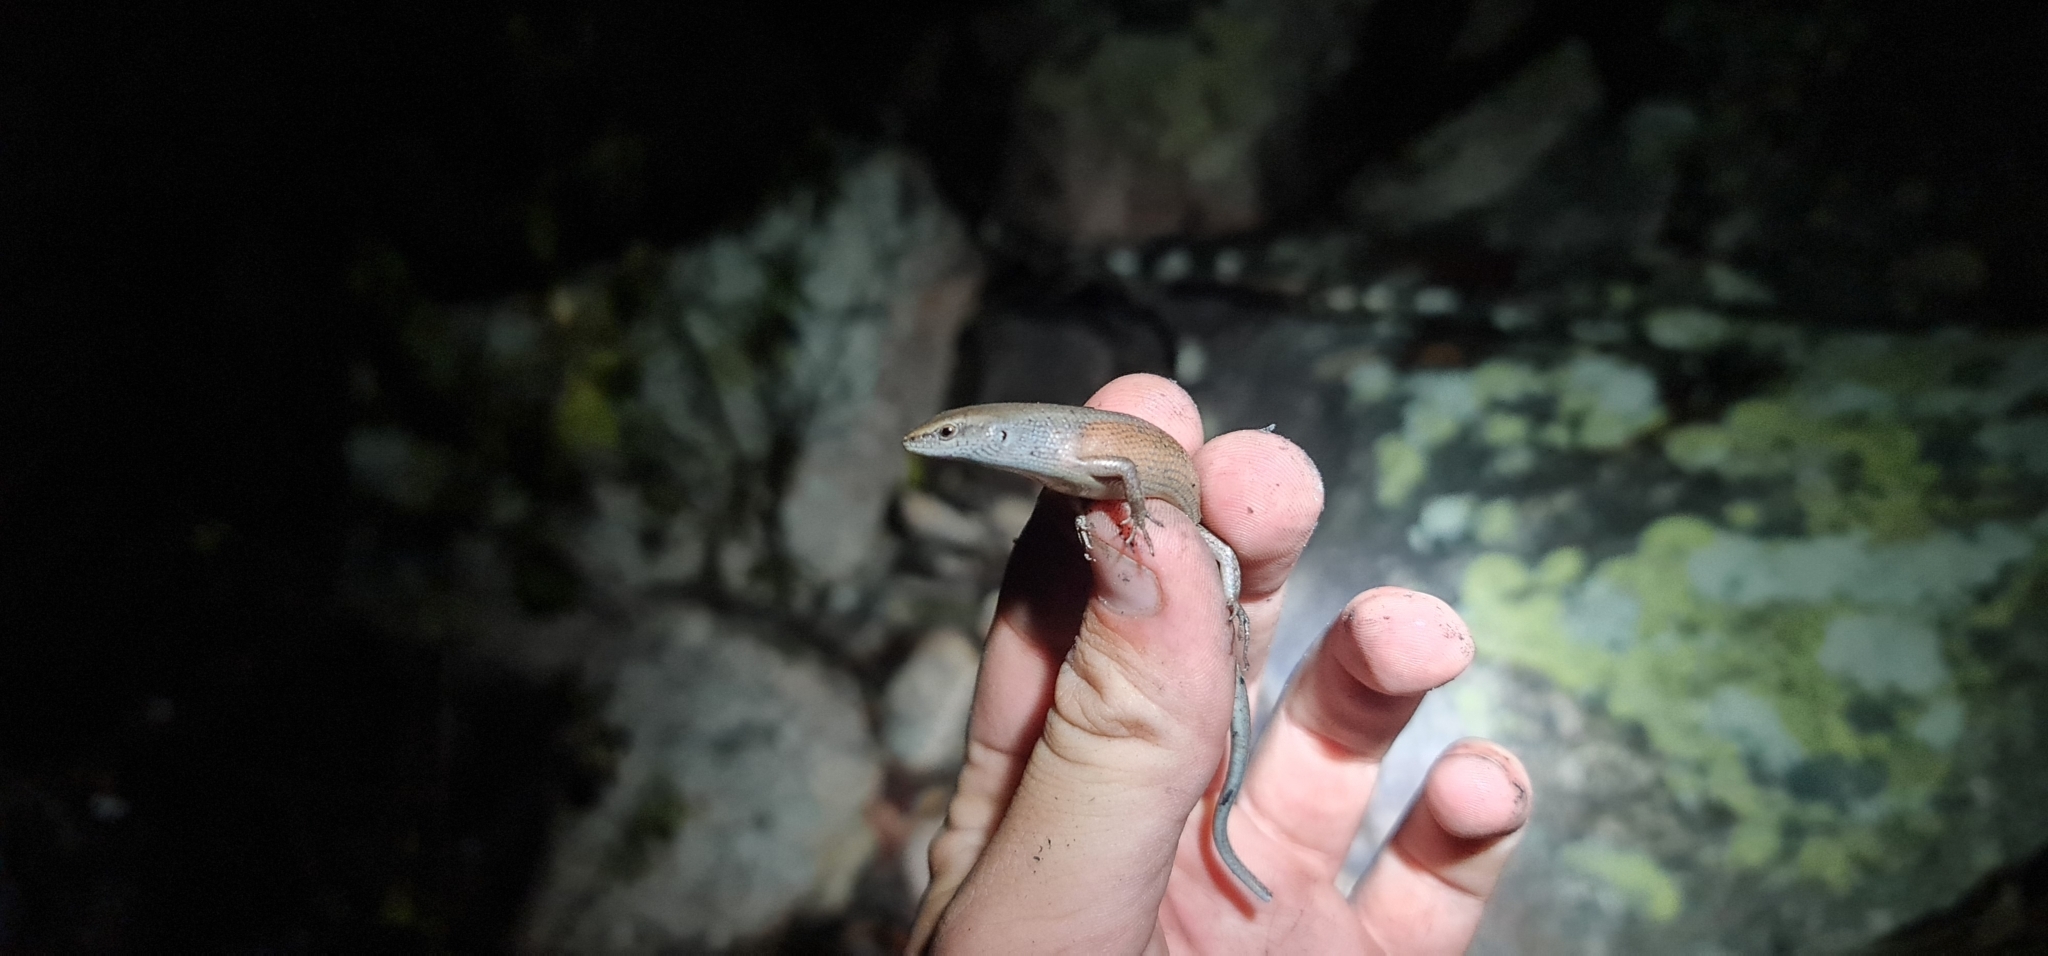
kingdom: Animalia
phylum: Chordata
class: Squamata
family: Scincidae
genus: Carlia
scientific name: Carlia schmeltzii
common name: Robust rainbow-skink
